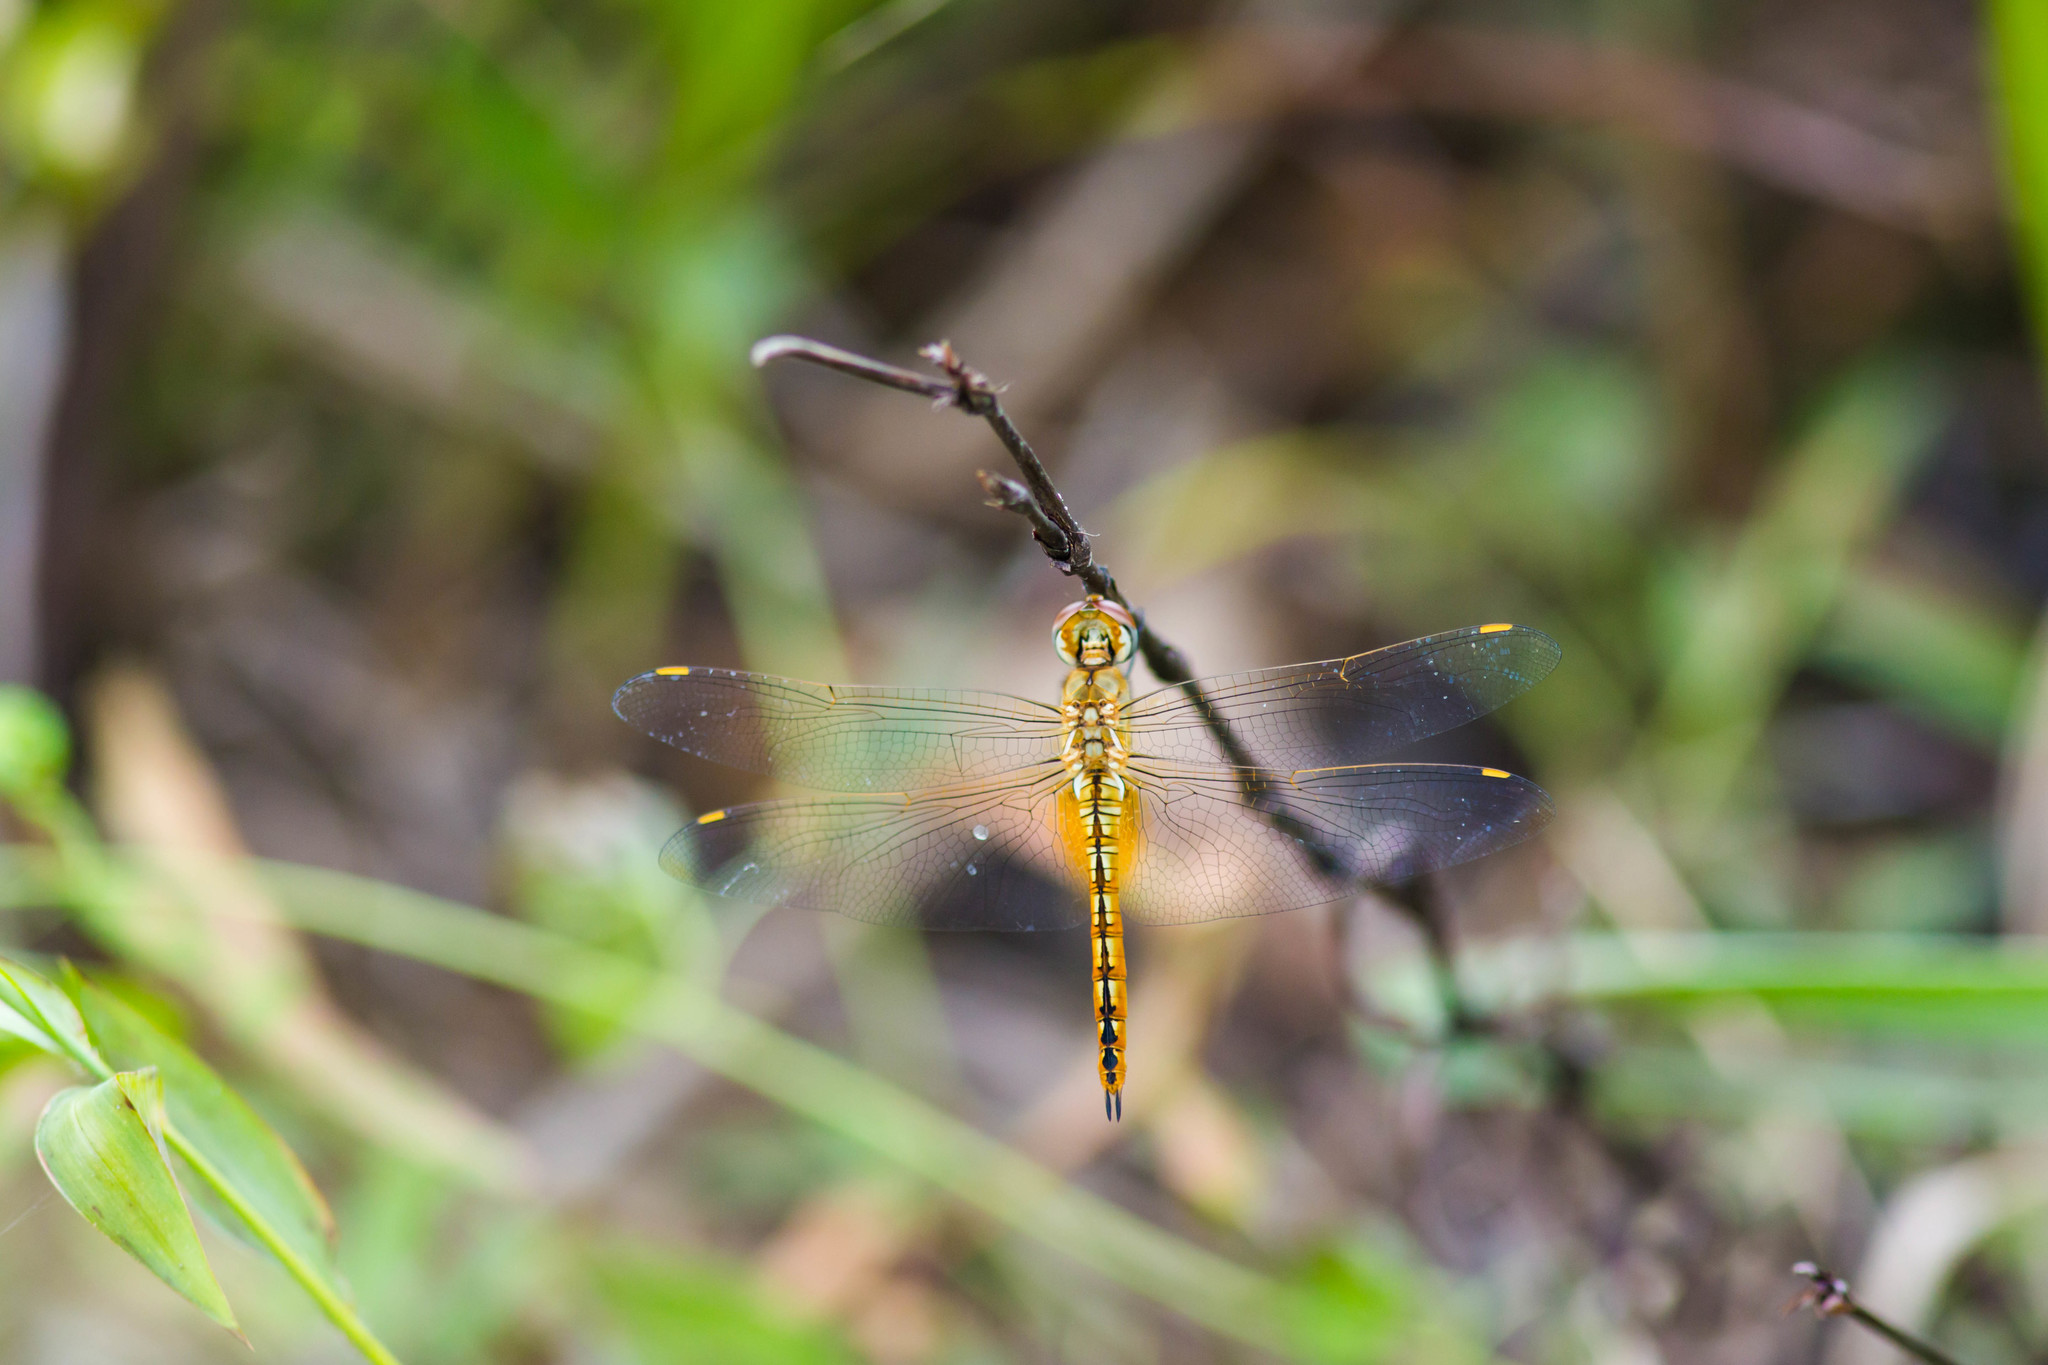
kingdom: Animalia
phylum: Arthropoda
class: Insecta
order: Odonata
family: Libellulidae
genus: Pantala
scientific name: Pantala flavescens
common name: Wandering glider
